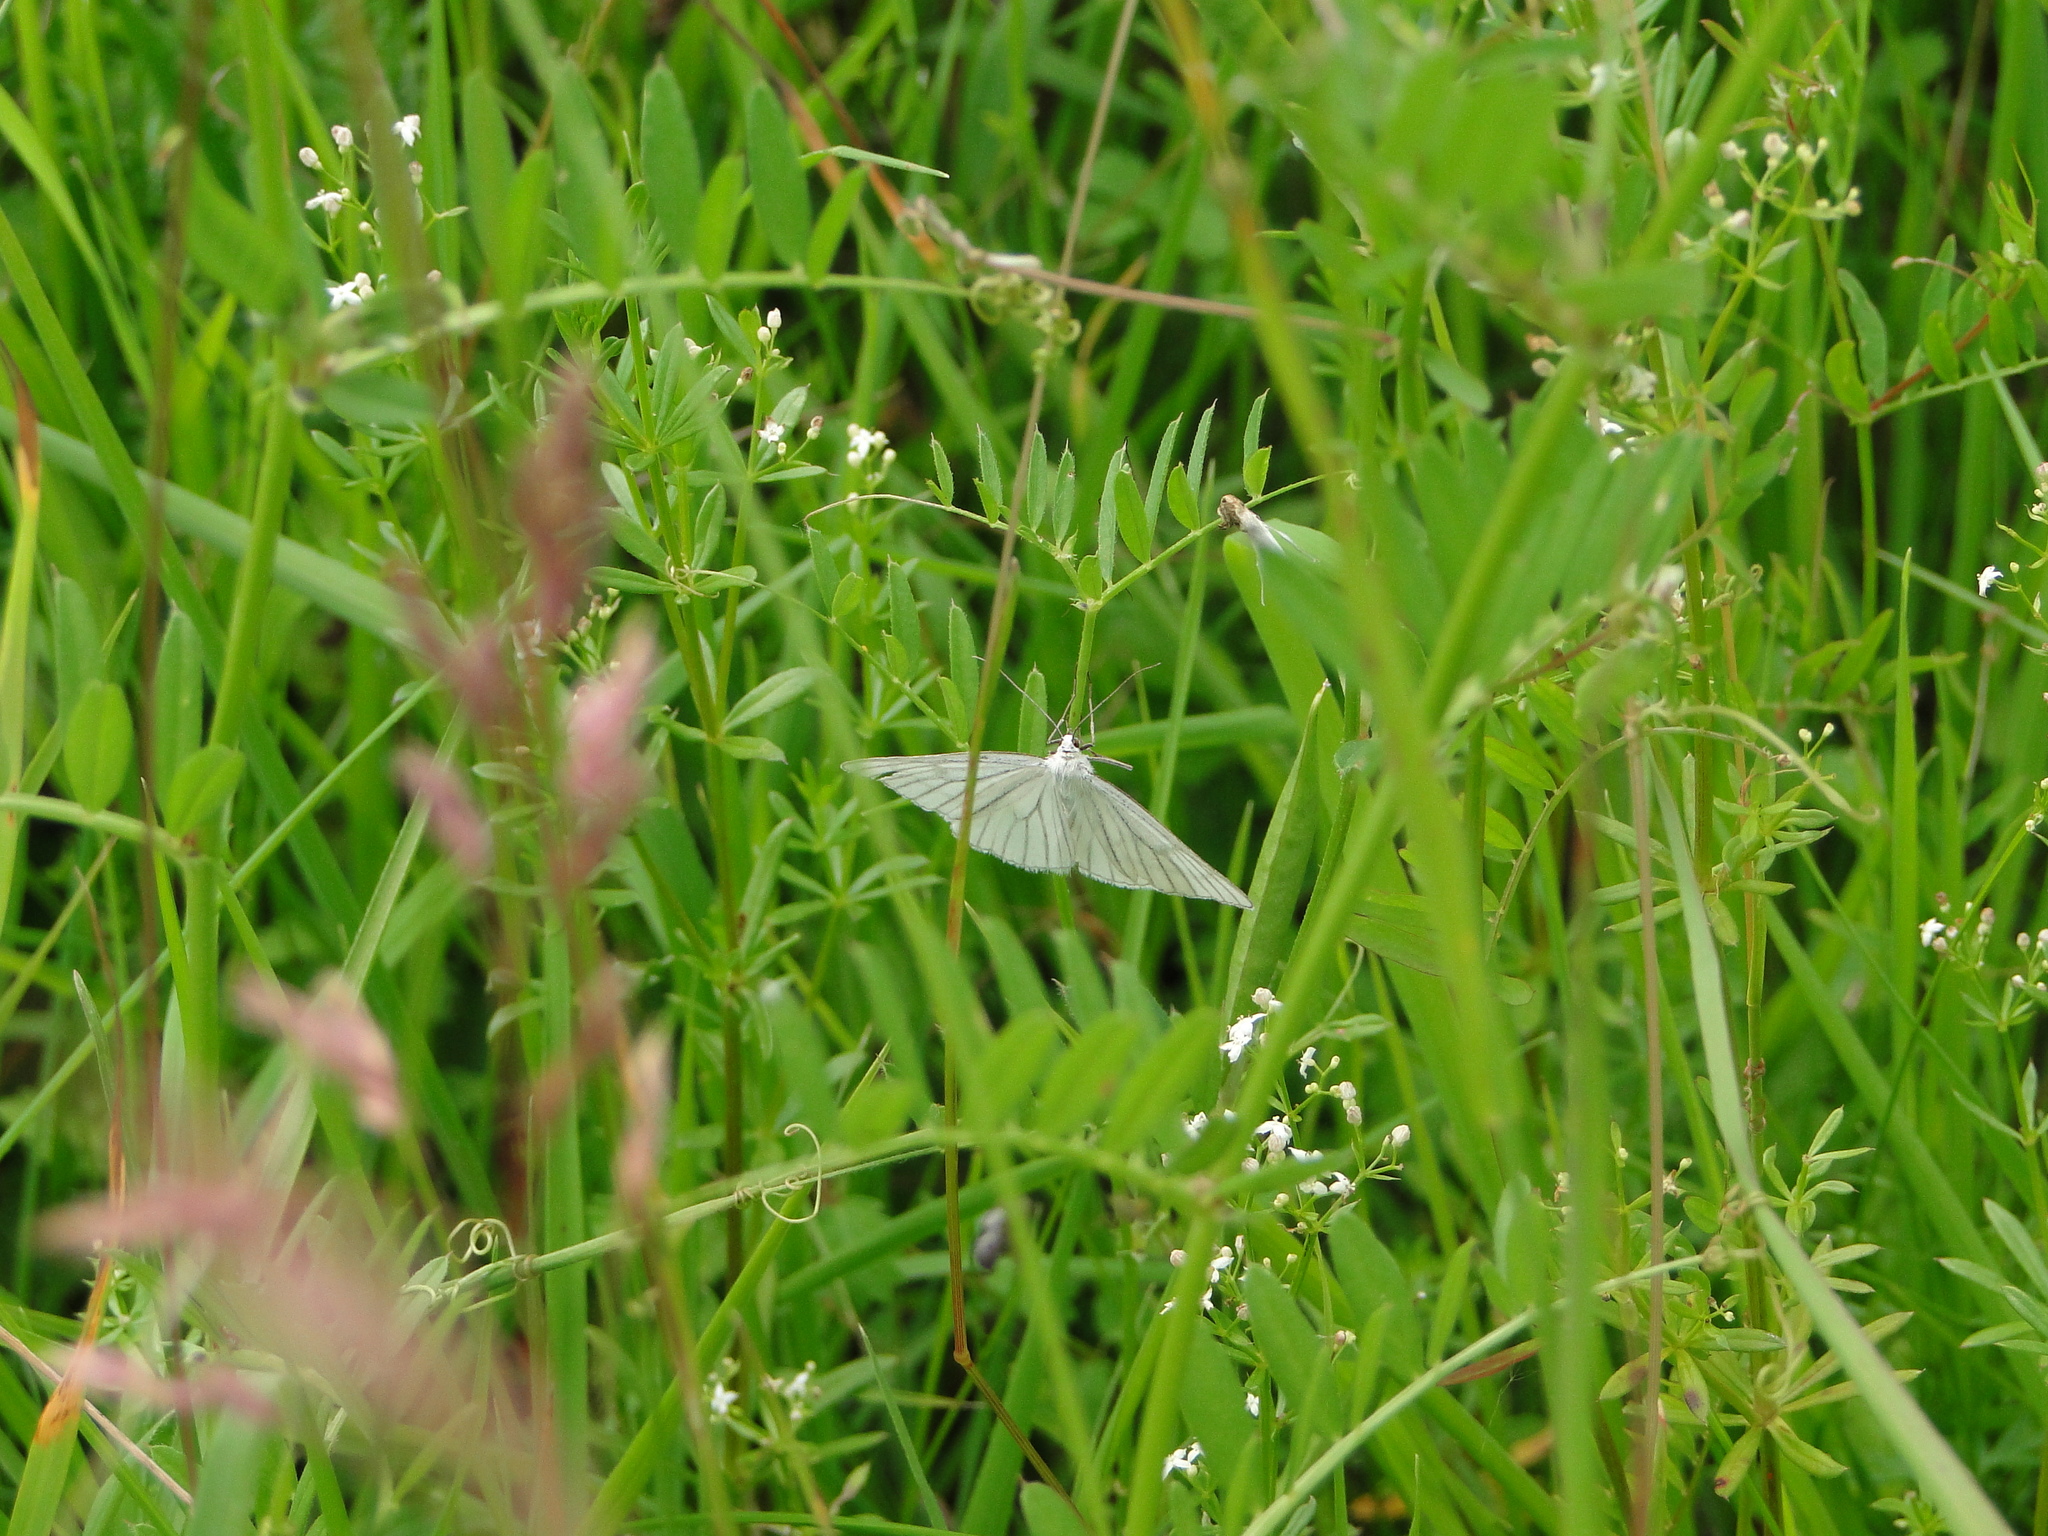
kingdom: Animalia
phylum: Arthropoda
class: Insecta
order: Lepidoptera
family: Geometridae
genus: Siona
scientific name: Siona lineata
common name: Black-veined moth
